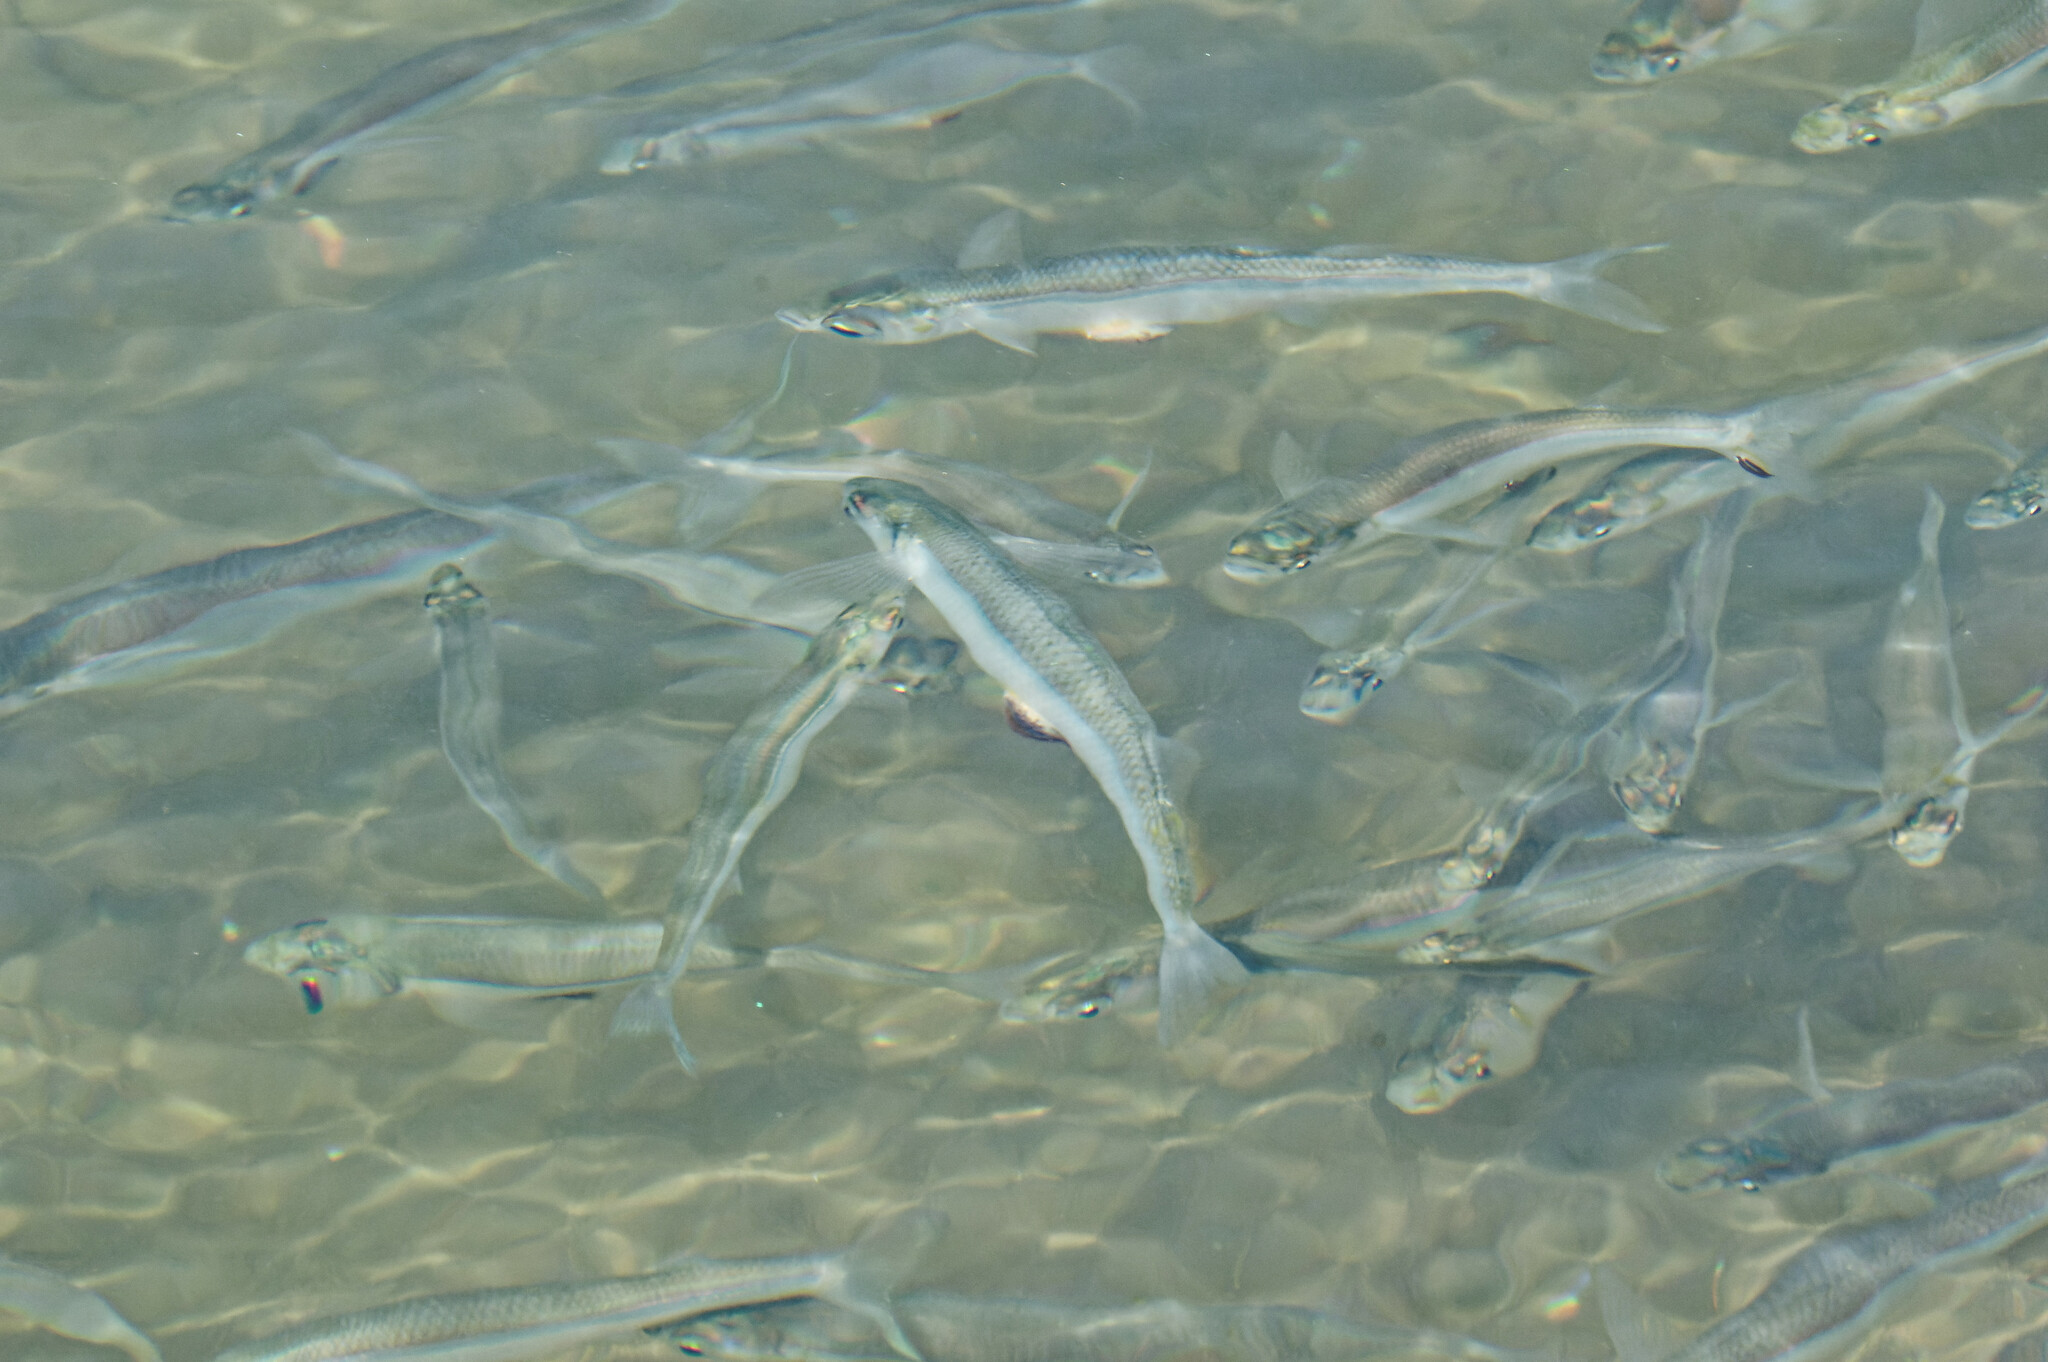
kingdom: Animalia
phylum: Chordata
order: Atheriniformes
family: Atherinopsidae
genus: Atherinops
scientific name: Atherinops affinis
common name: Topsmelt
